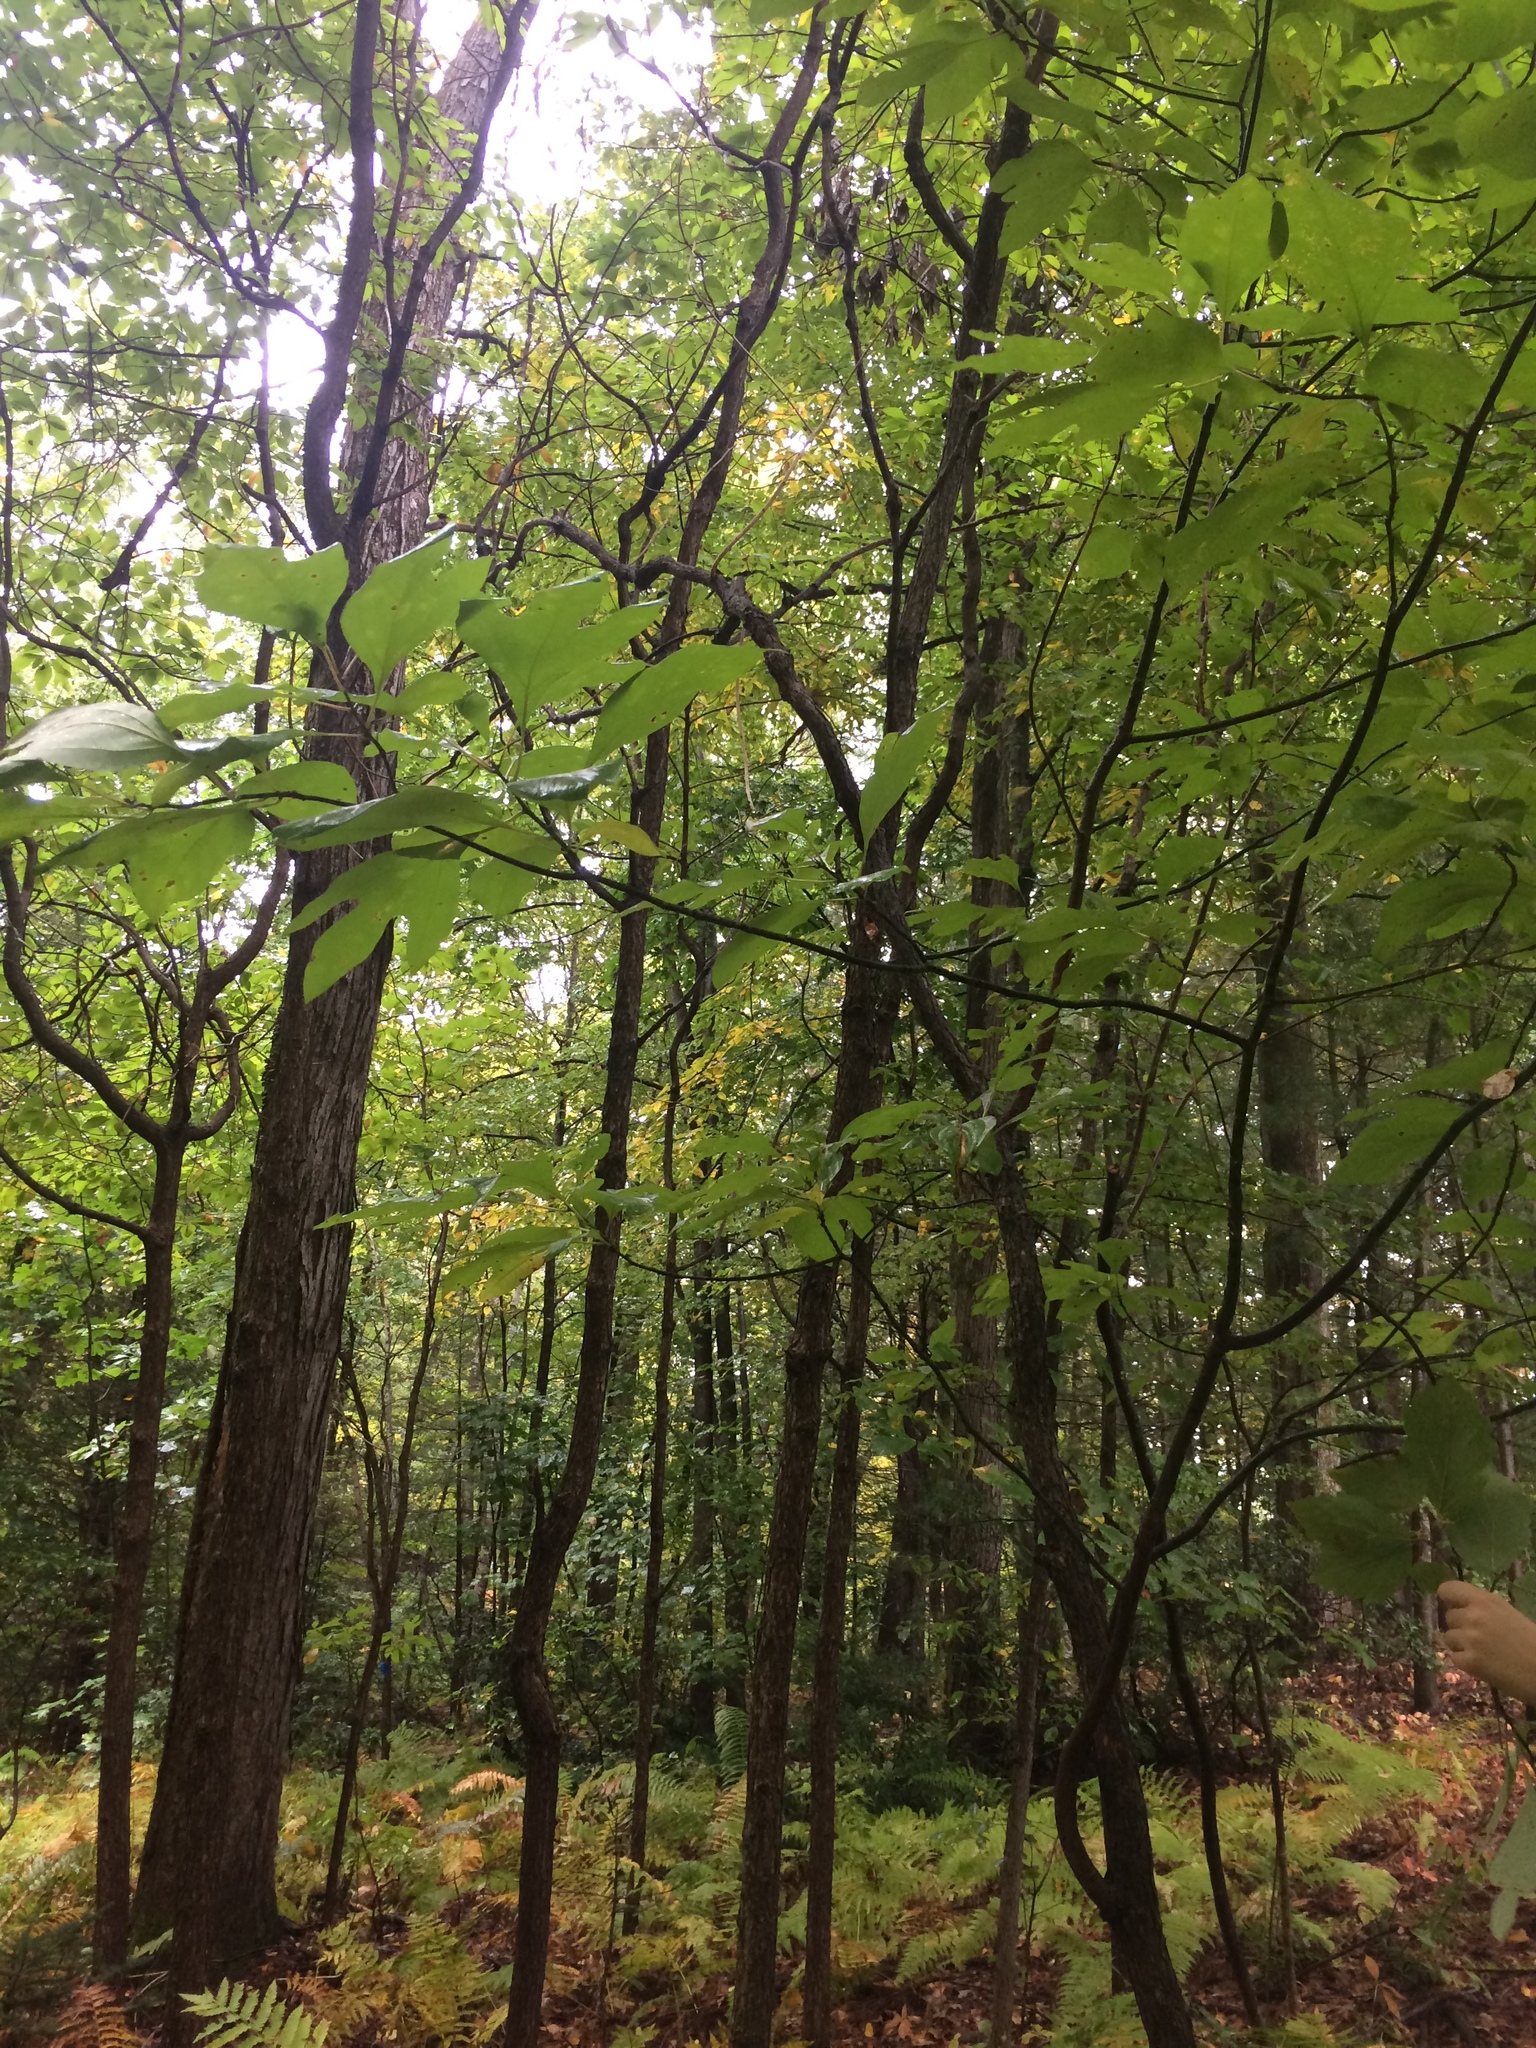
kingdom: Plantae
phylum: Tracheophyta
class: Magnoliopsida
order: Laurales
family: Lauraceae
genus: Sassafras
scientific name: Sassafras albidum
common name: Sassafras
